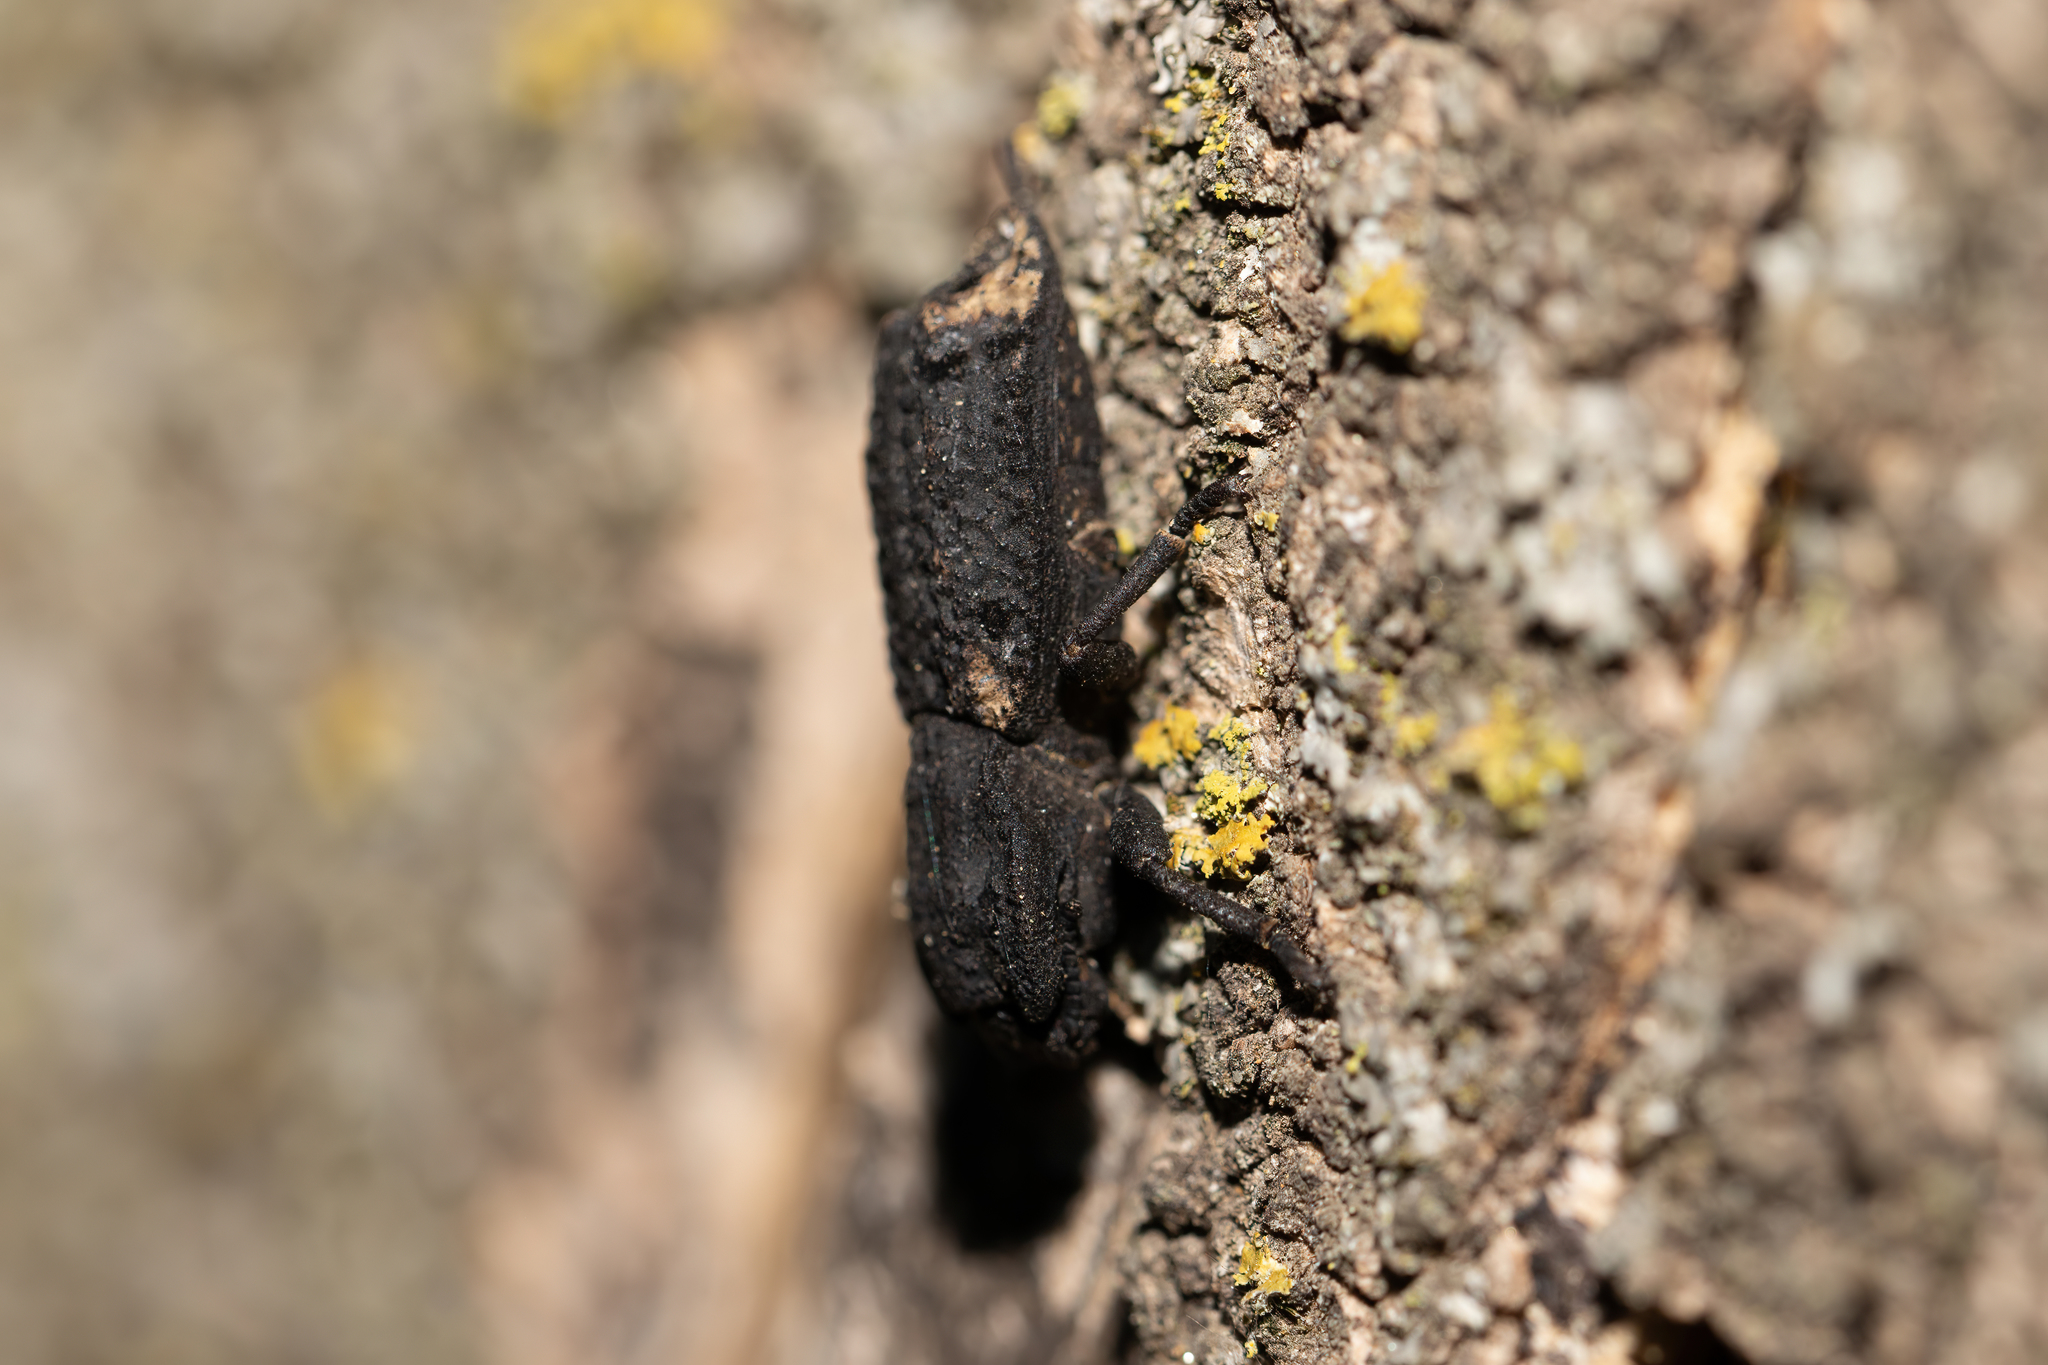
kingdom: Animalia
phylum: Arthropoda
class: Insecta
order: Coleoptera
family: Zopheridae
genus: Phloeodes
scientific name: Phloeodes diabolicus
